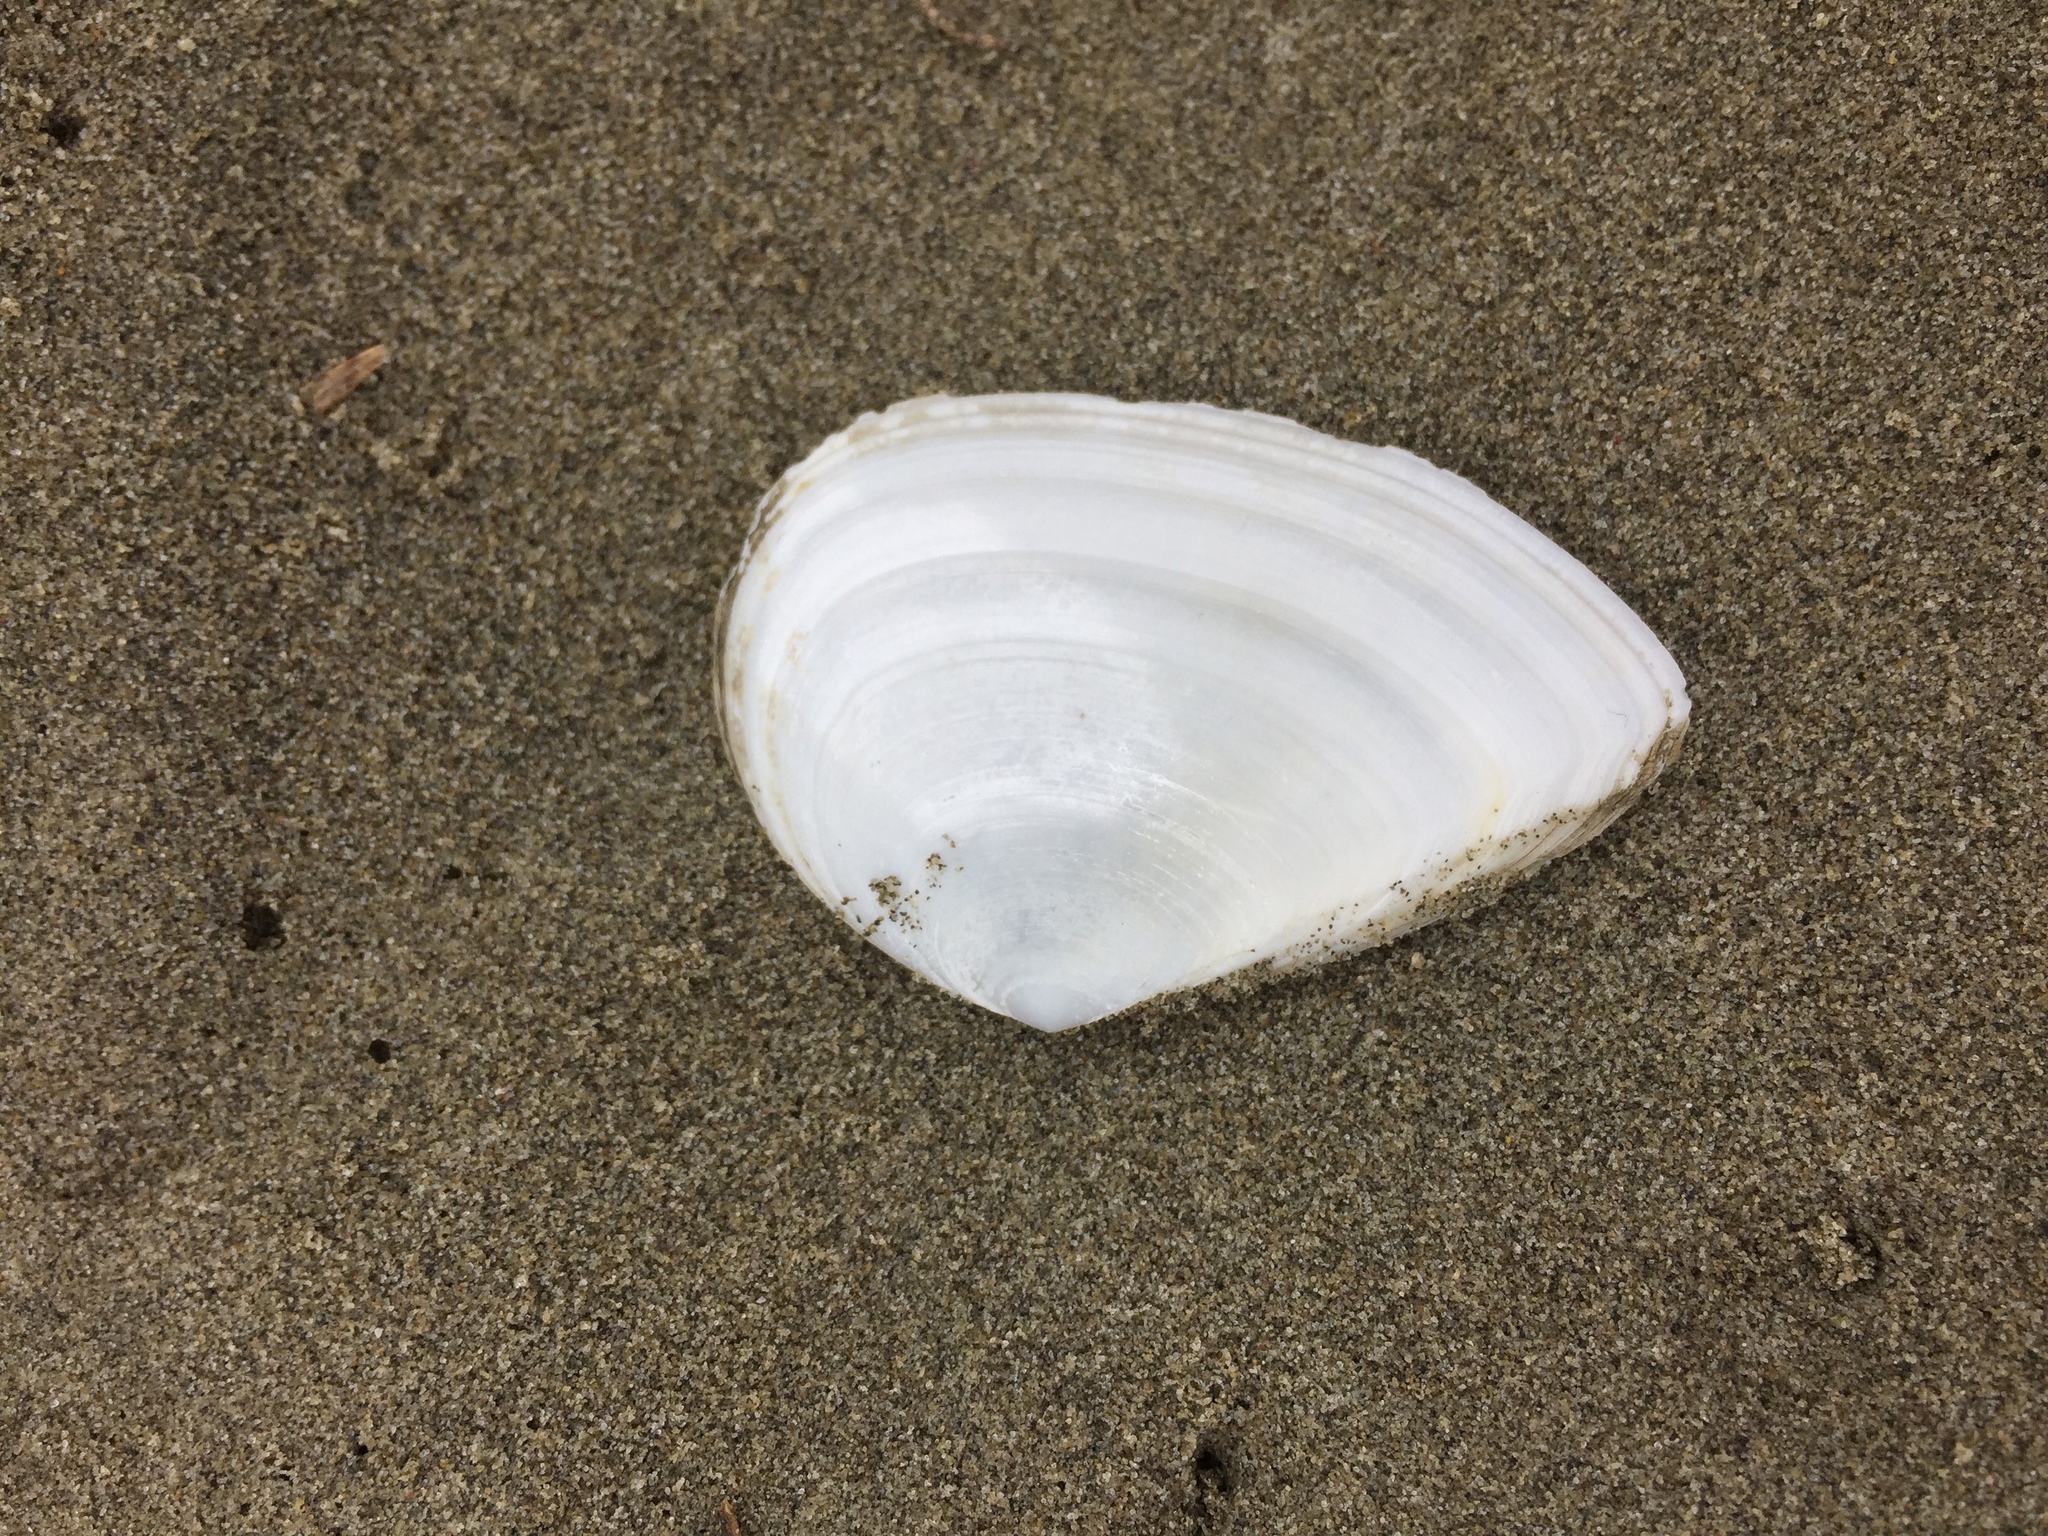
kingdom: Animalia
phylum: Mollusca
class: Bivalvia
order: Cardiida
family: Tellinidae
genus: Bartschicoma
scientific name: Bartschicoma gaimardi
